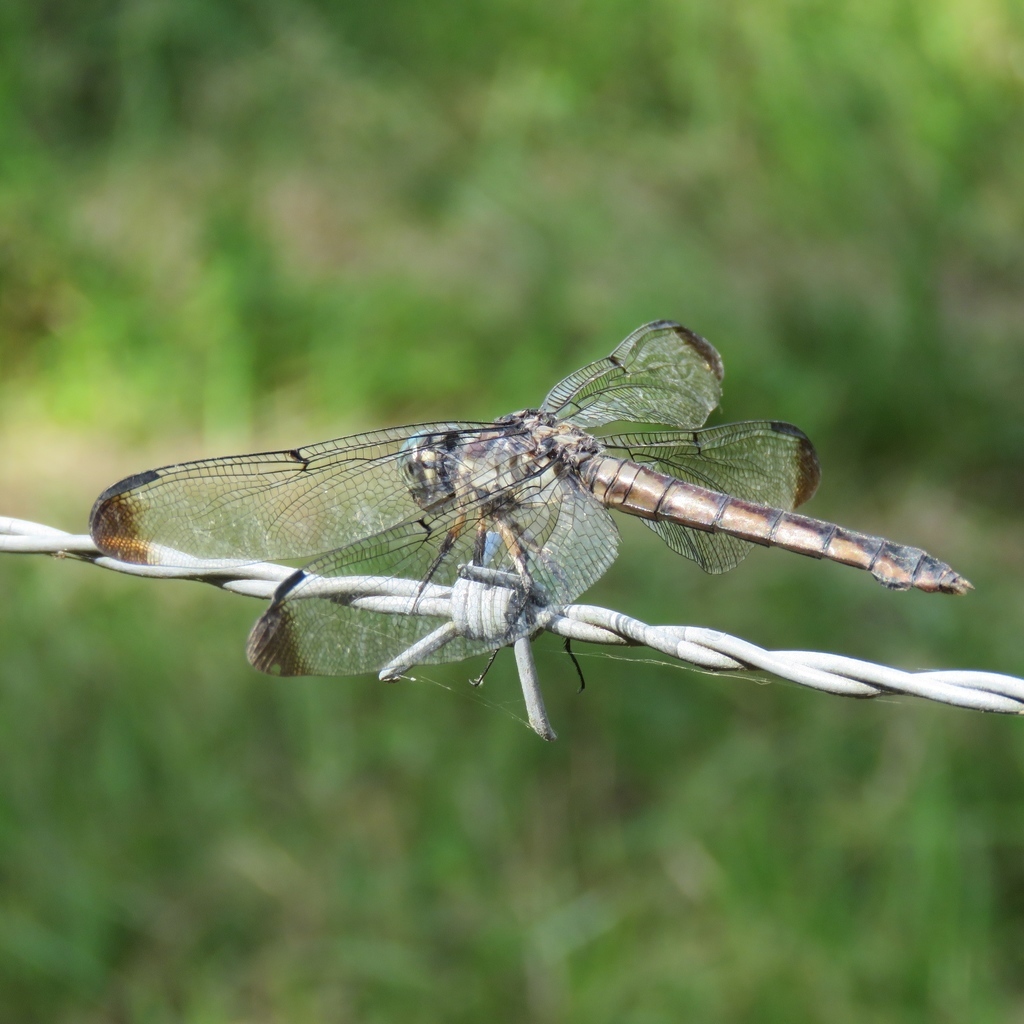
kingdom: Animalia
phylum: Arthropoda
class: Insecta
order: Odonata
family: Libellulidae
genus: Libellula
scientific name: Libellula vibrans
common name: Great blue skimmer
